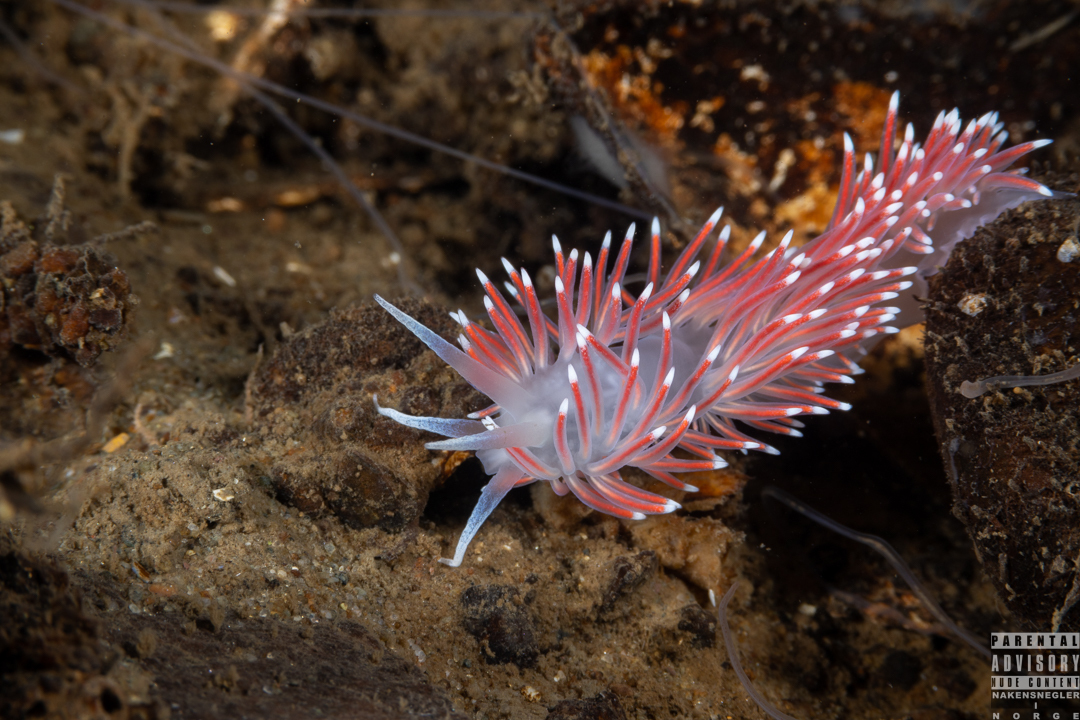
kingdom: Animalia
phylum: Mollusca
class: Gastropoda
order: Nudibranchia
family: Flabellinidae
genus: Carronella
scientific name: Carronella pellucida
